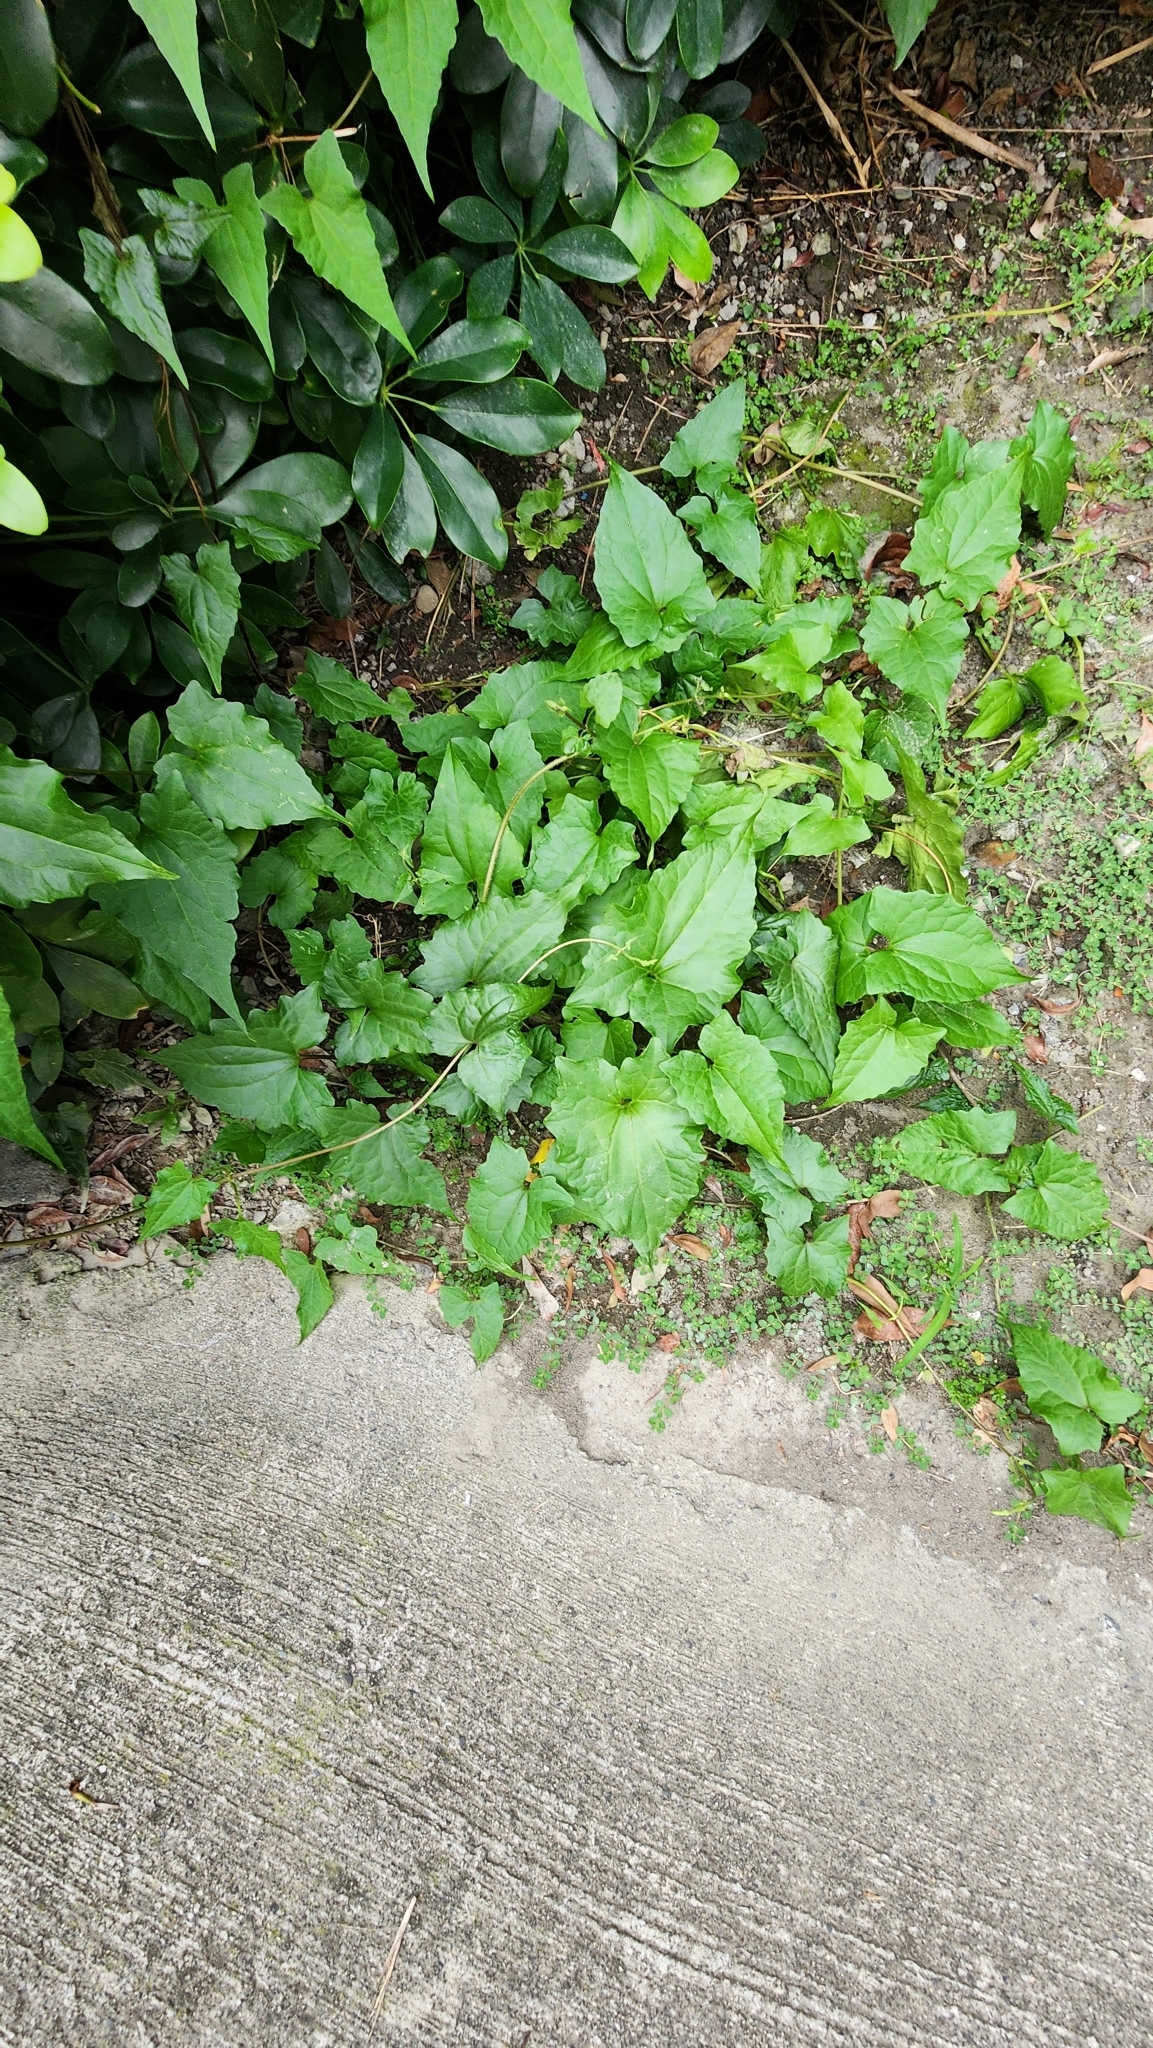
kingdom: Plantae
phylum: Tracheophyta
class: Magnoliopsida
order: Asterales
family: Asteraceae
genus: Mikania
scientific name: Mikania micrantha
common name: Mile-a-minute
